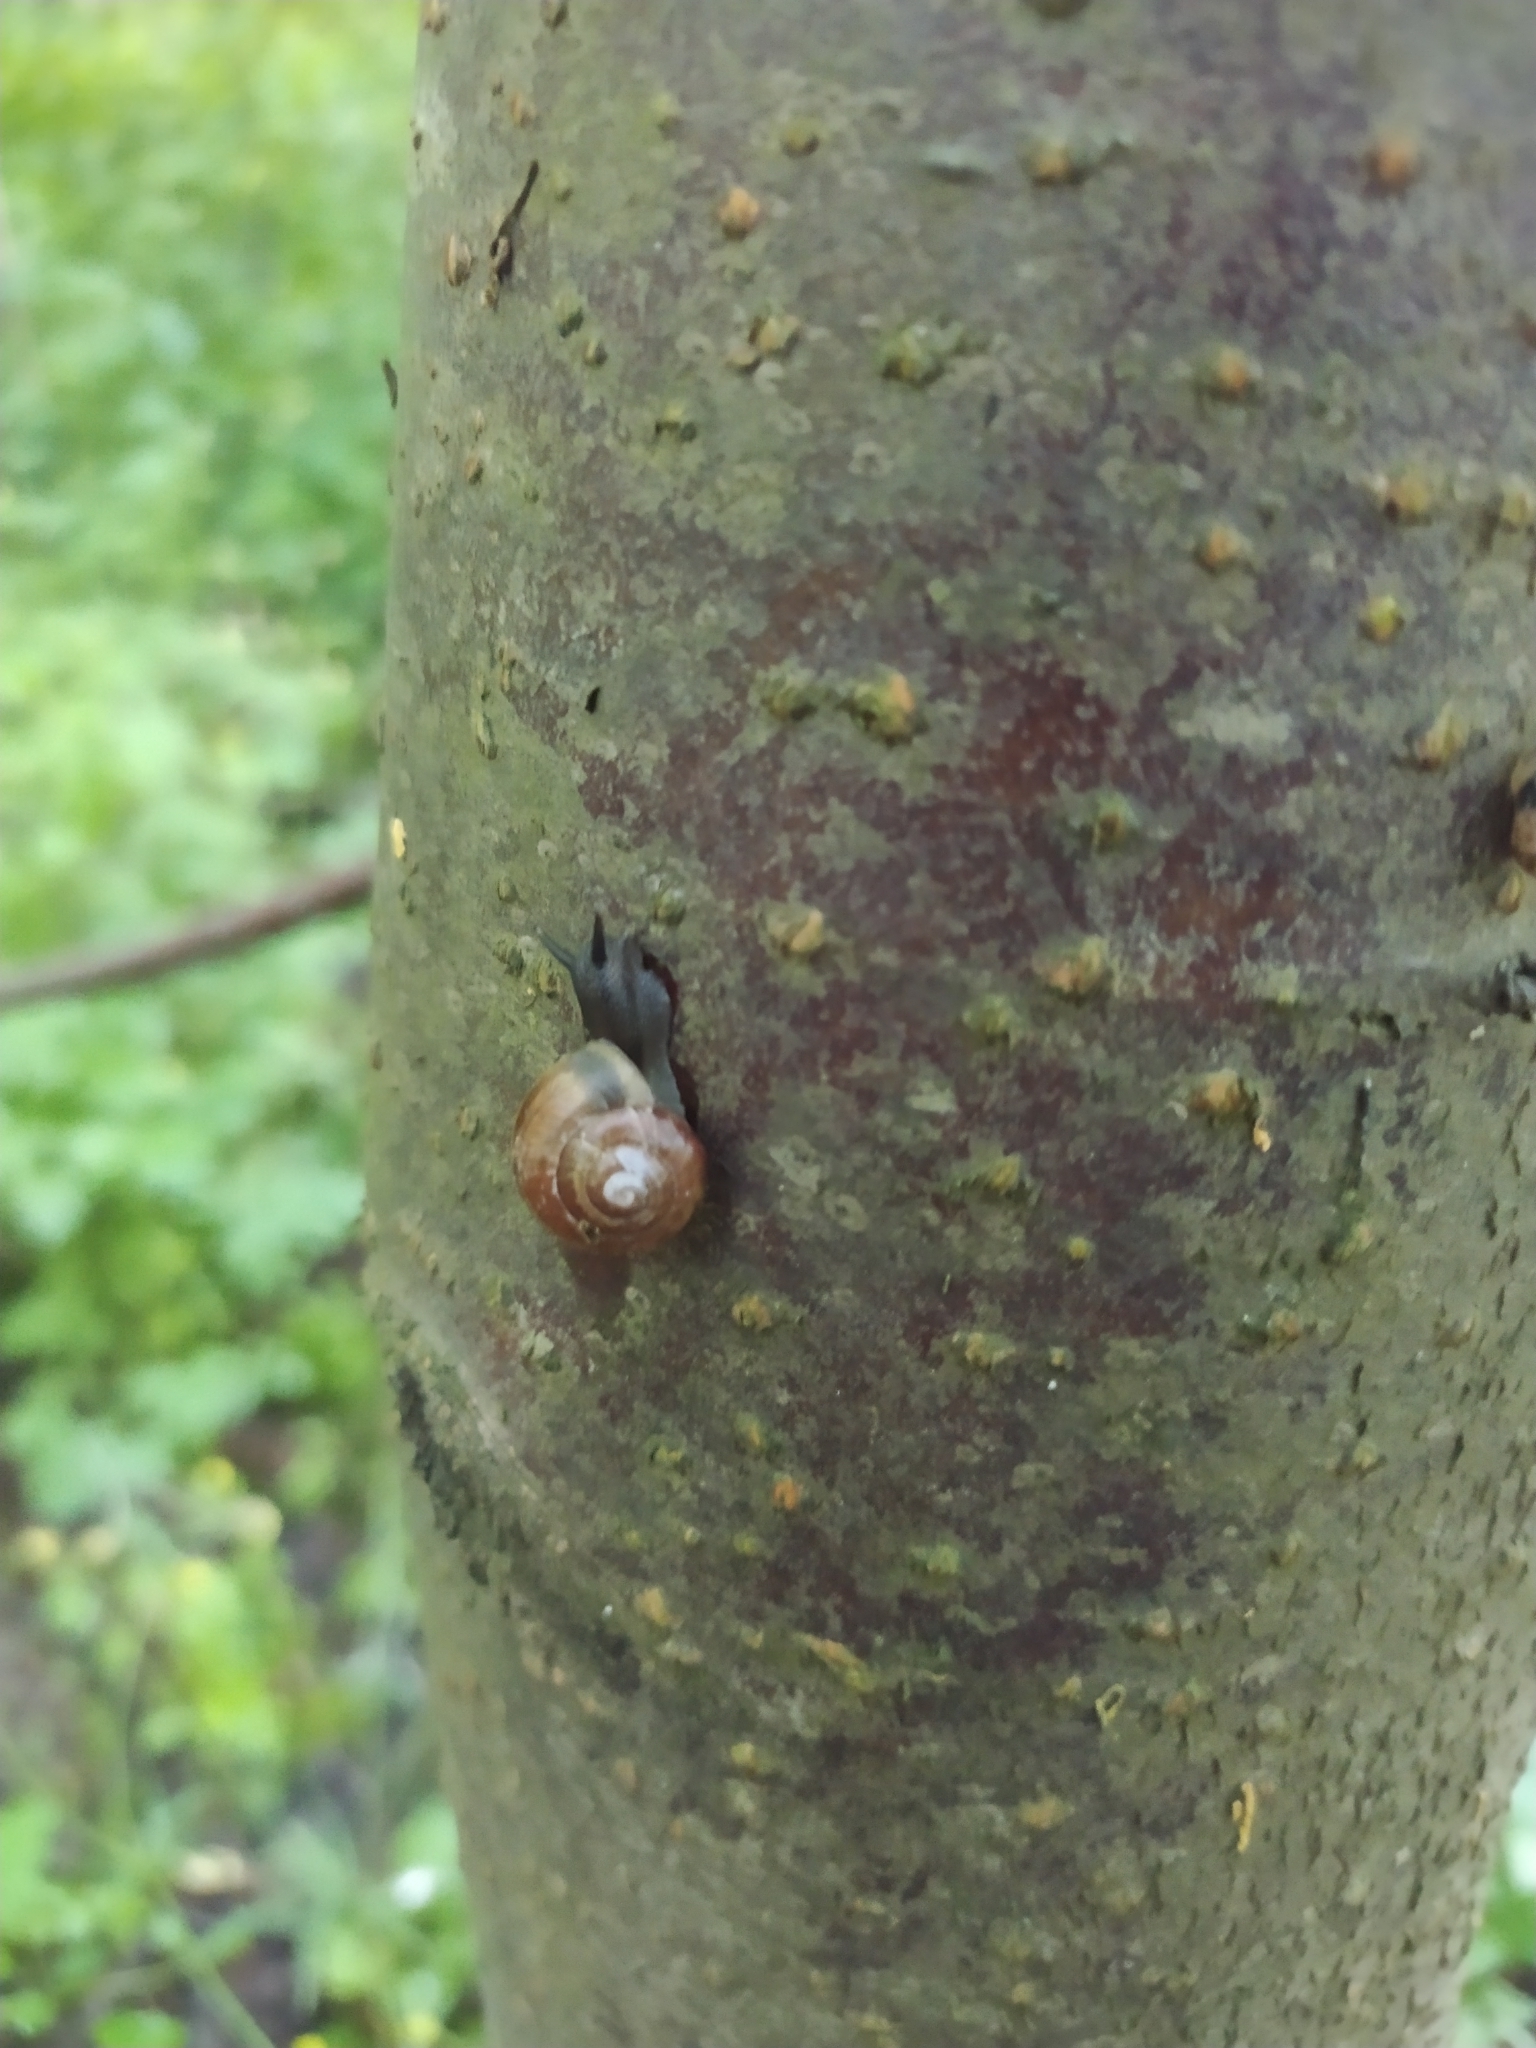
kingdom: Animalia
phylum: Mollusca
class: Gastropoda
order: Stylommatophora
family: Helicidae
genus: Arianta
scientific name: Arianta arbustorum
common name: Copse snail
